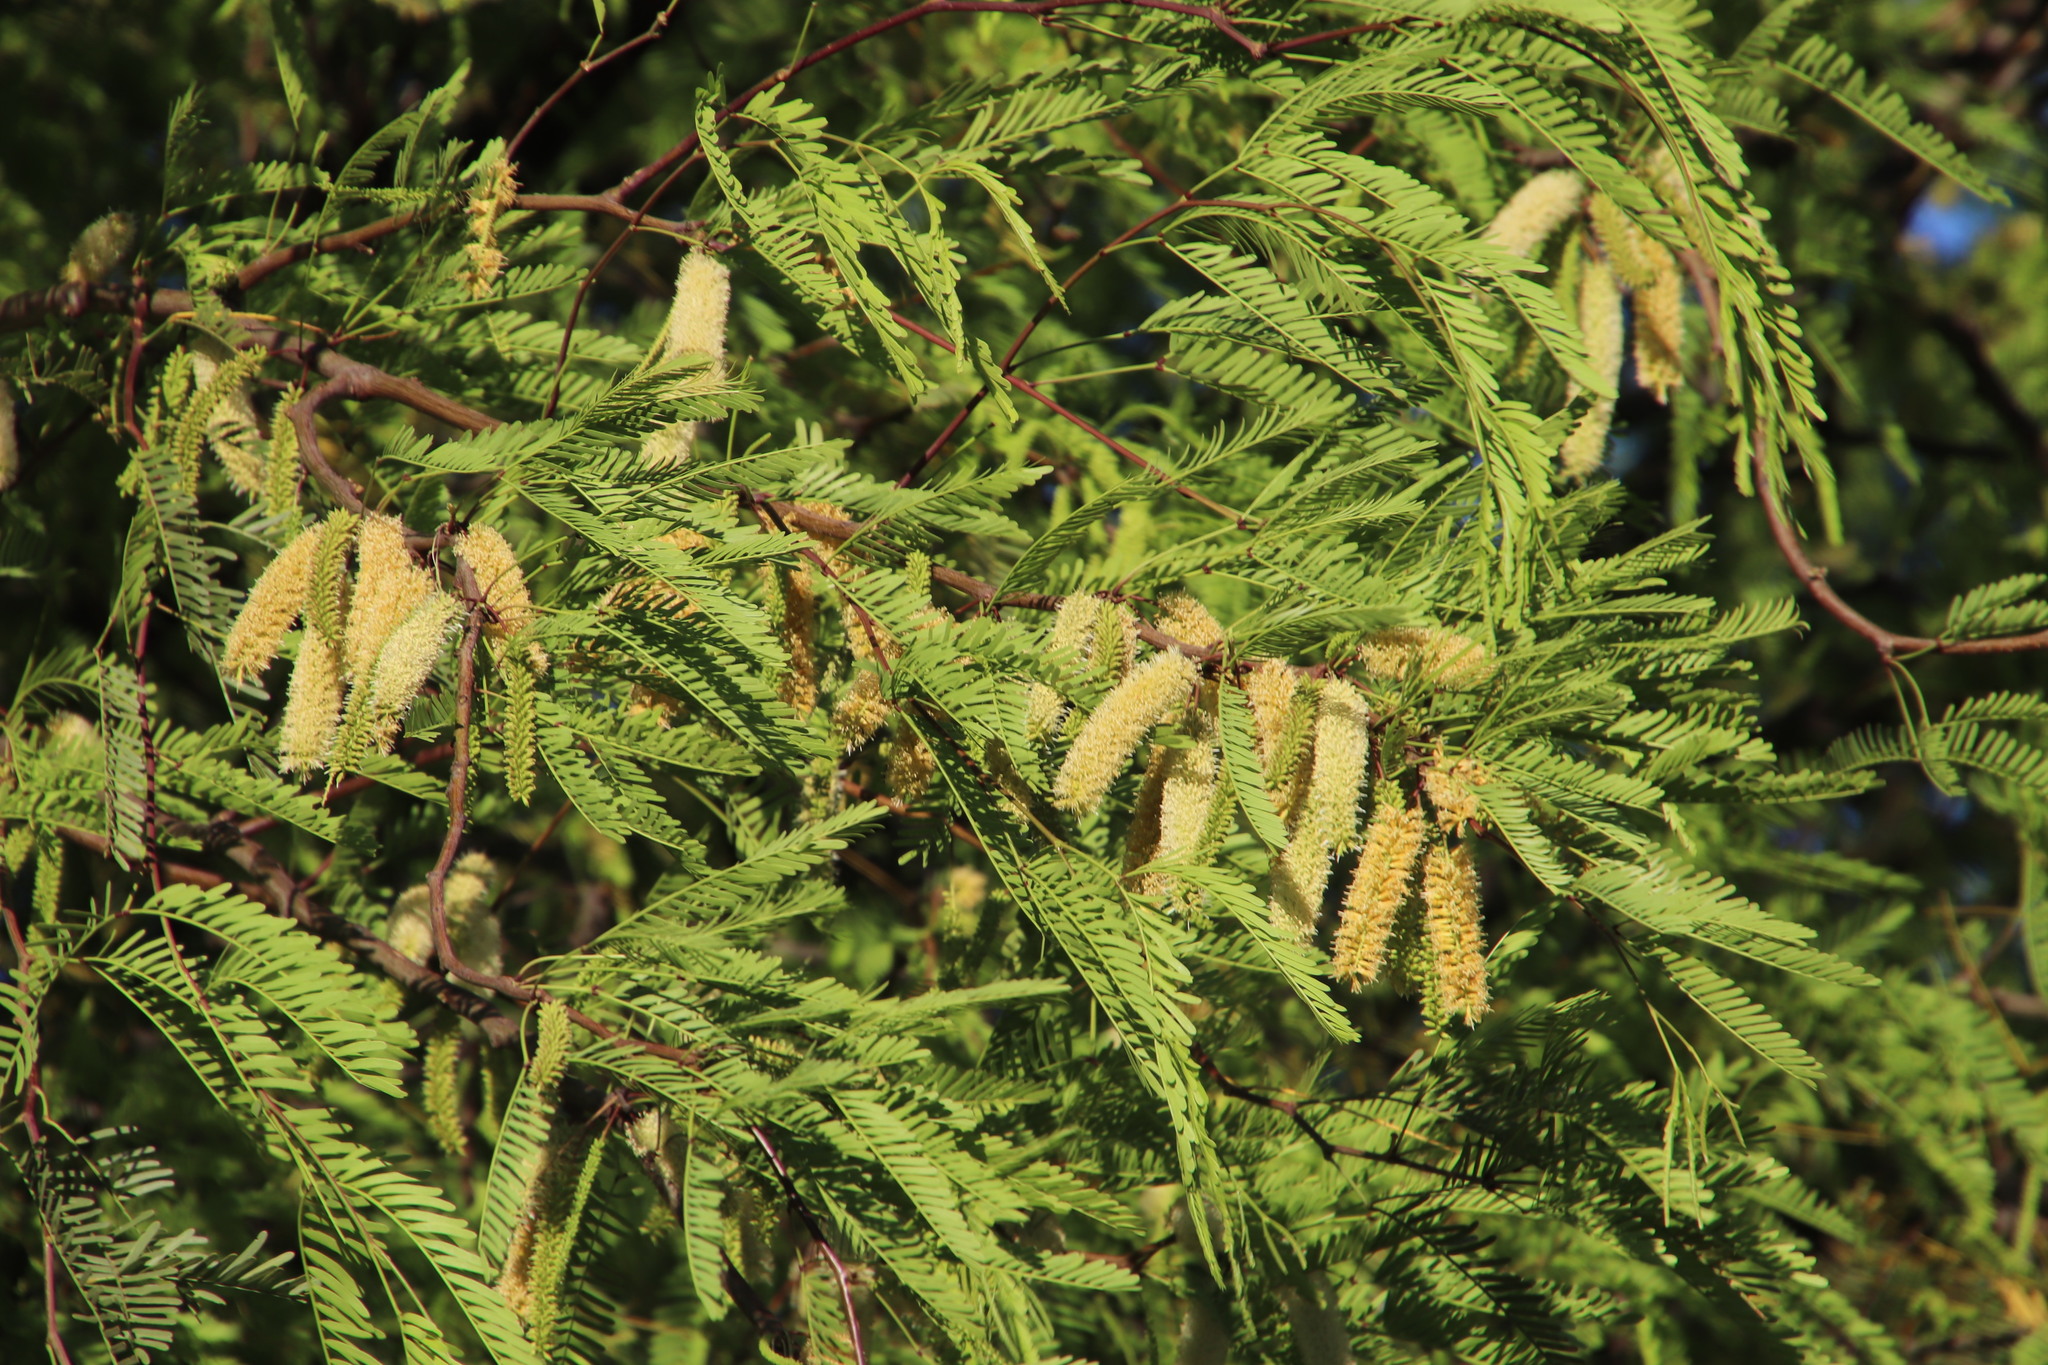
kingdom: Plantae
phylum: Tracheophyta
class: Magnoliopsida
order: Fabales
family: Fabaceae
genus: Prosopis
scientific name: Prosopis pubescens
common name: Screw-bean
